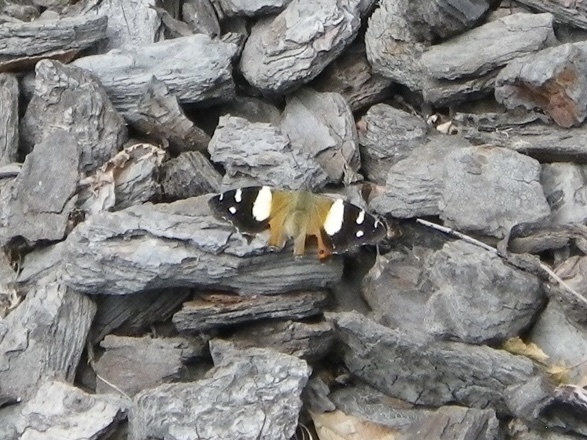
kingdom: Animalia
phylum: Arthropoda
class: Insecta
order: Lepidoptera
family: Nymphalidae
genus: Vanessa
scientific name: Vanessa itea
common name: Yellow admiral
